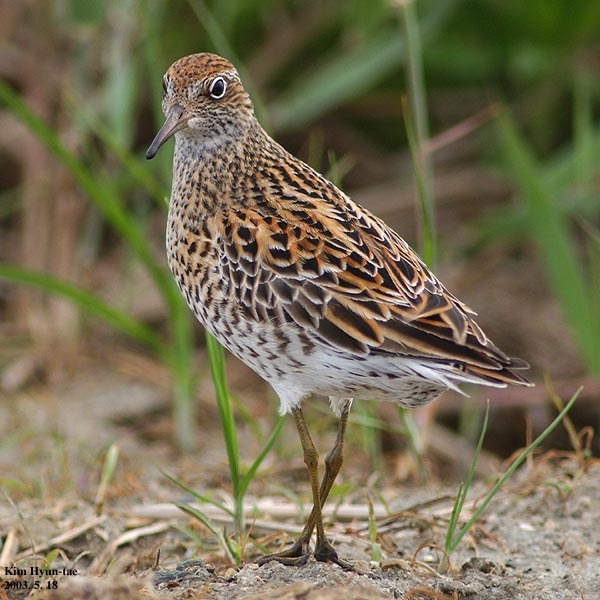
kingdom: Animalia
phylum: Chordata
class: Aves
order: Charadriiformes
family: Scolopacidae
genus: Calidris
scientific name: Calidris acuminata
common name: Sharp-tailed sandpiper
